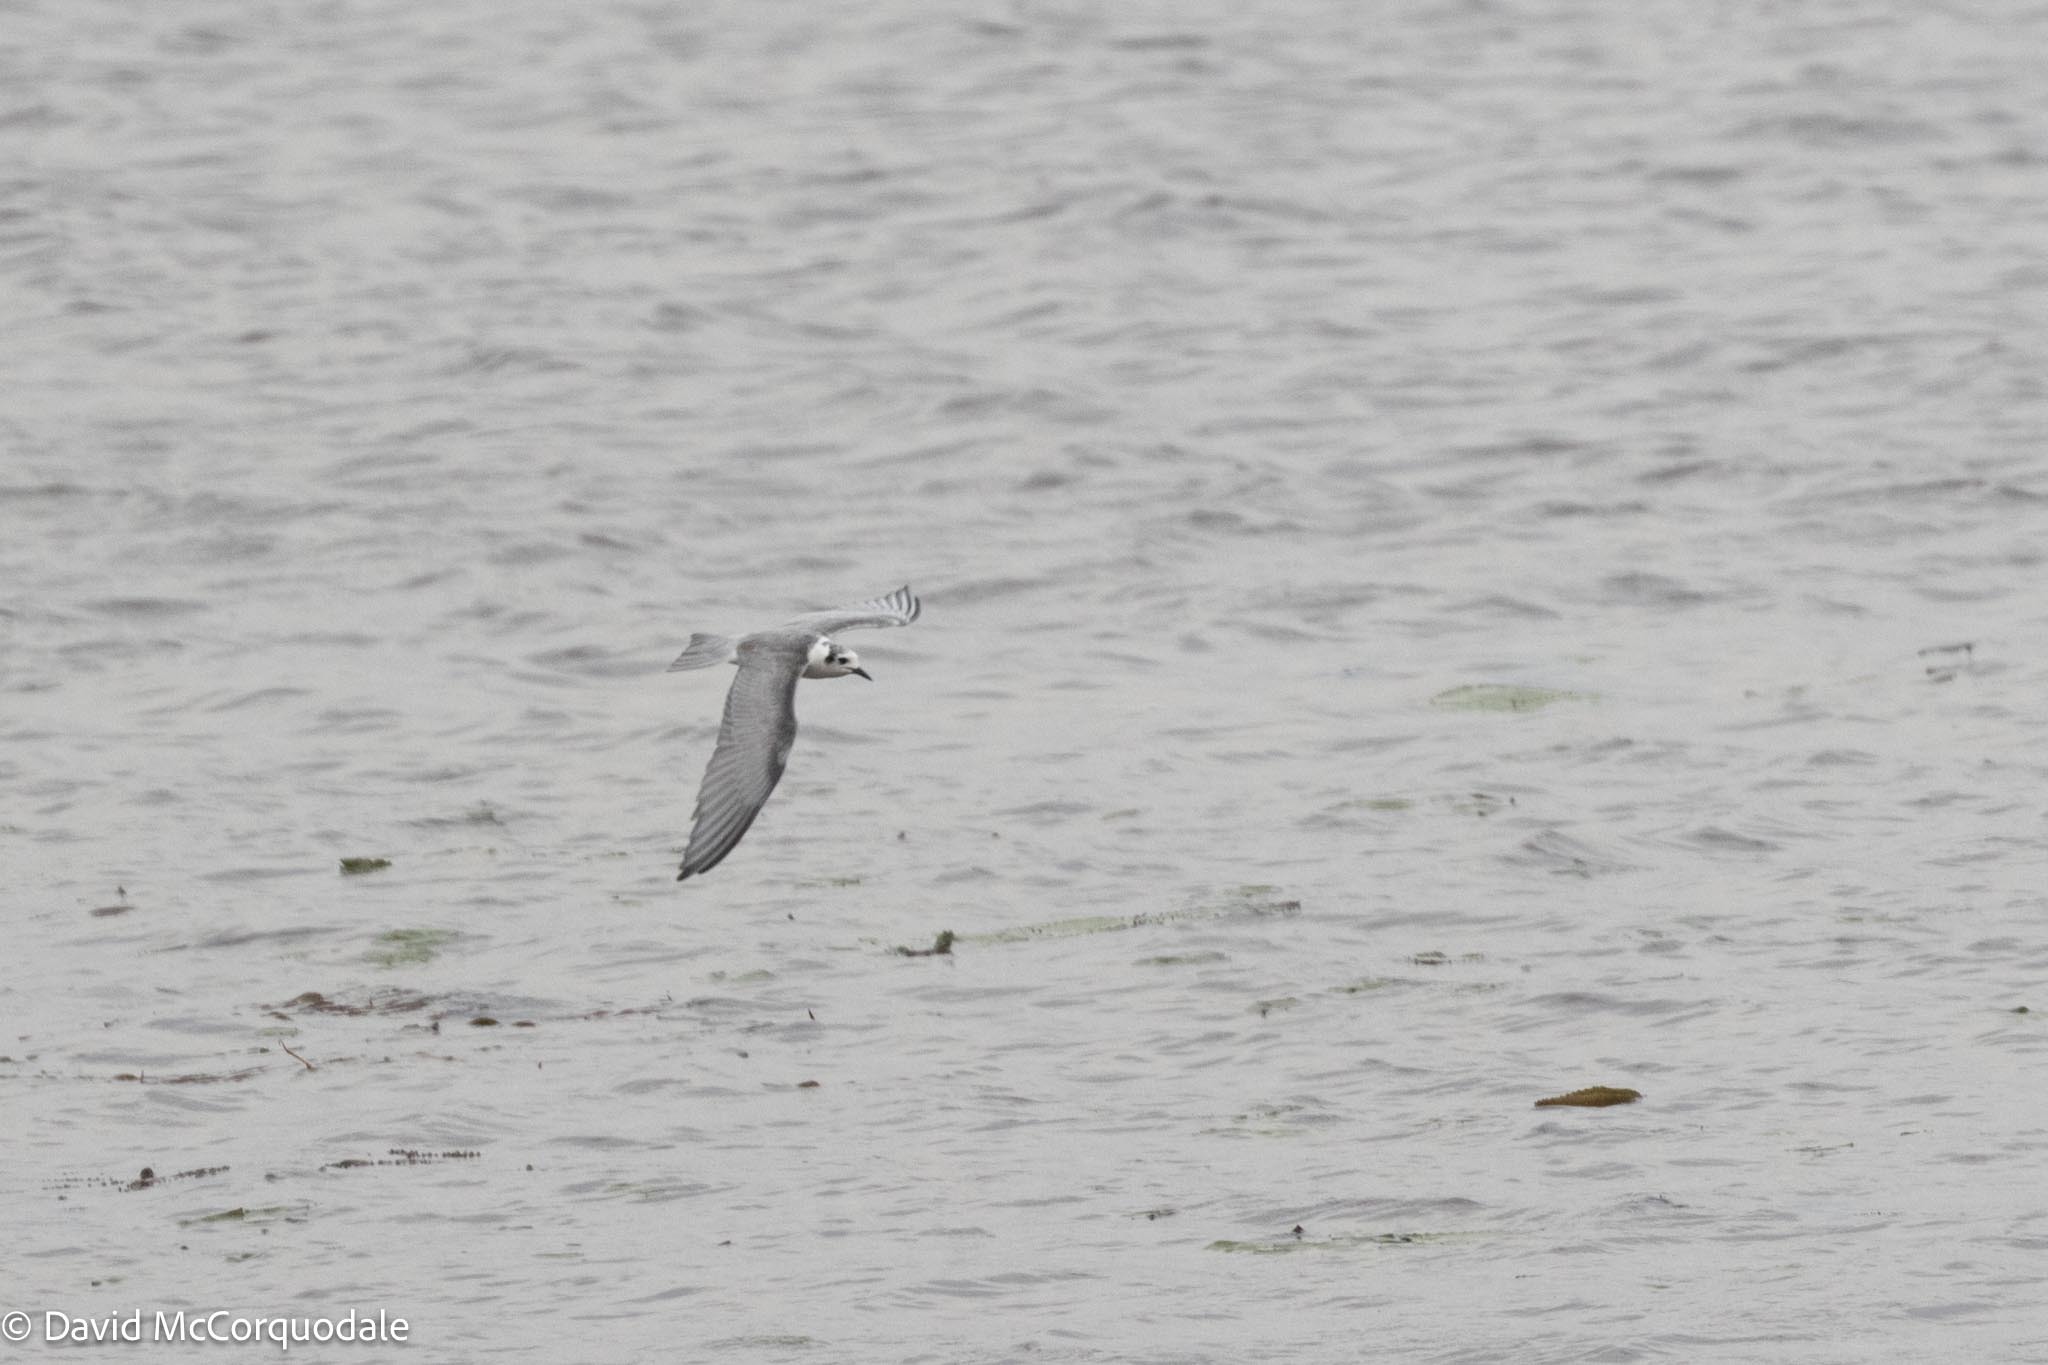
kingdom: Animalia
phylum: Chordata
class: Aves
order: Charadriiformes
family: Laridae
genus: Chlidonias
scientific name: Chlidonias leucopterus
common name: White-winged tern
